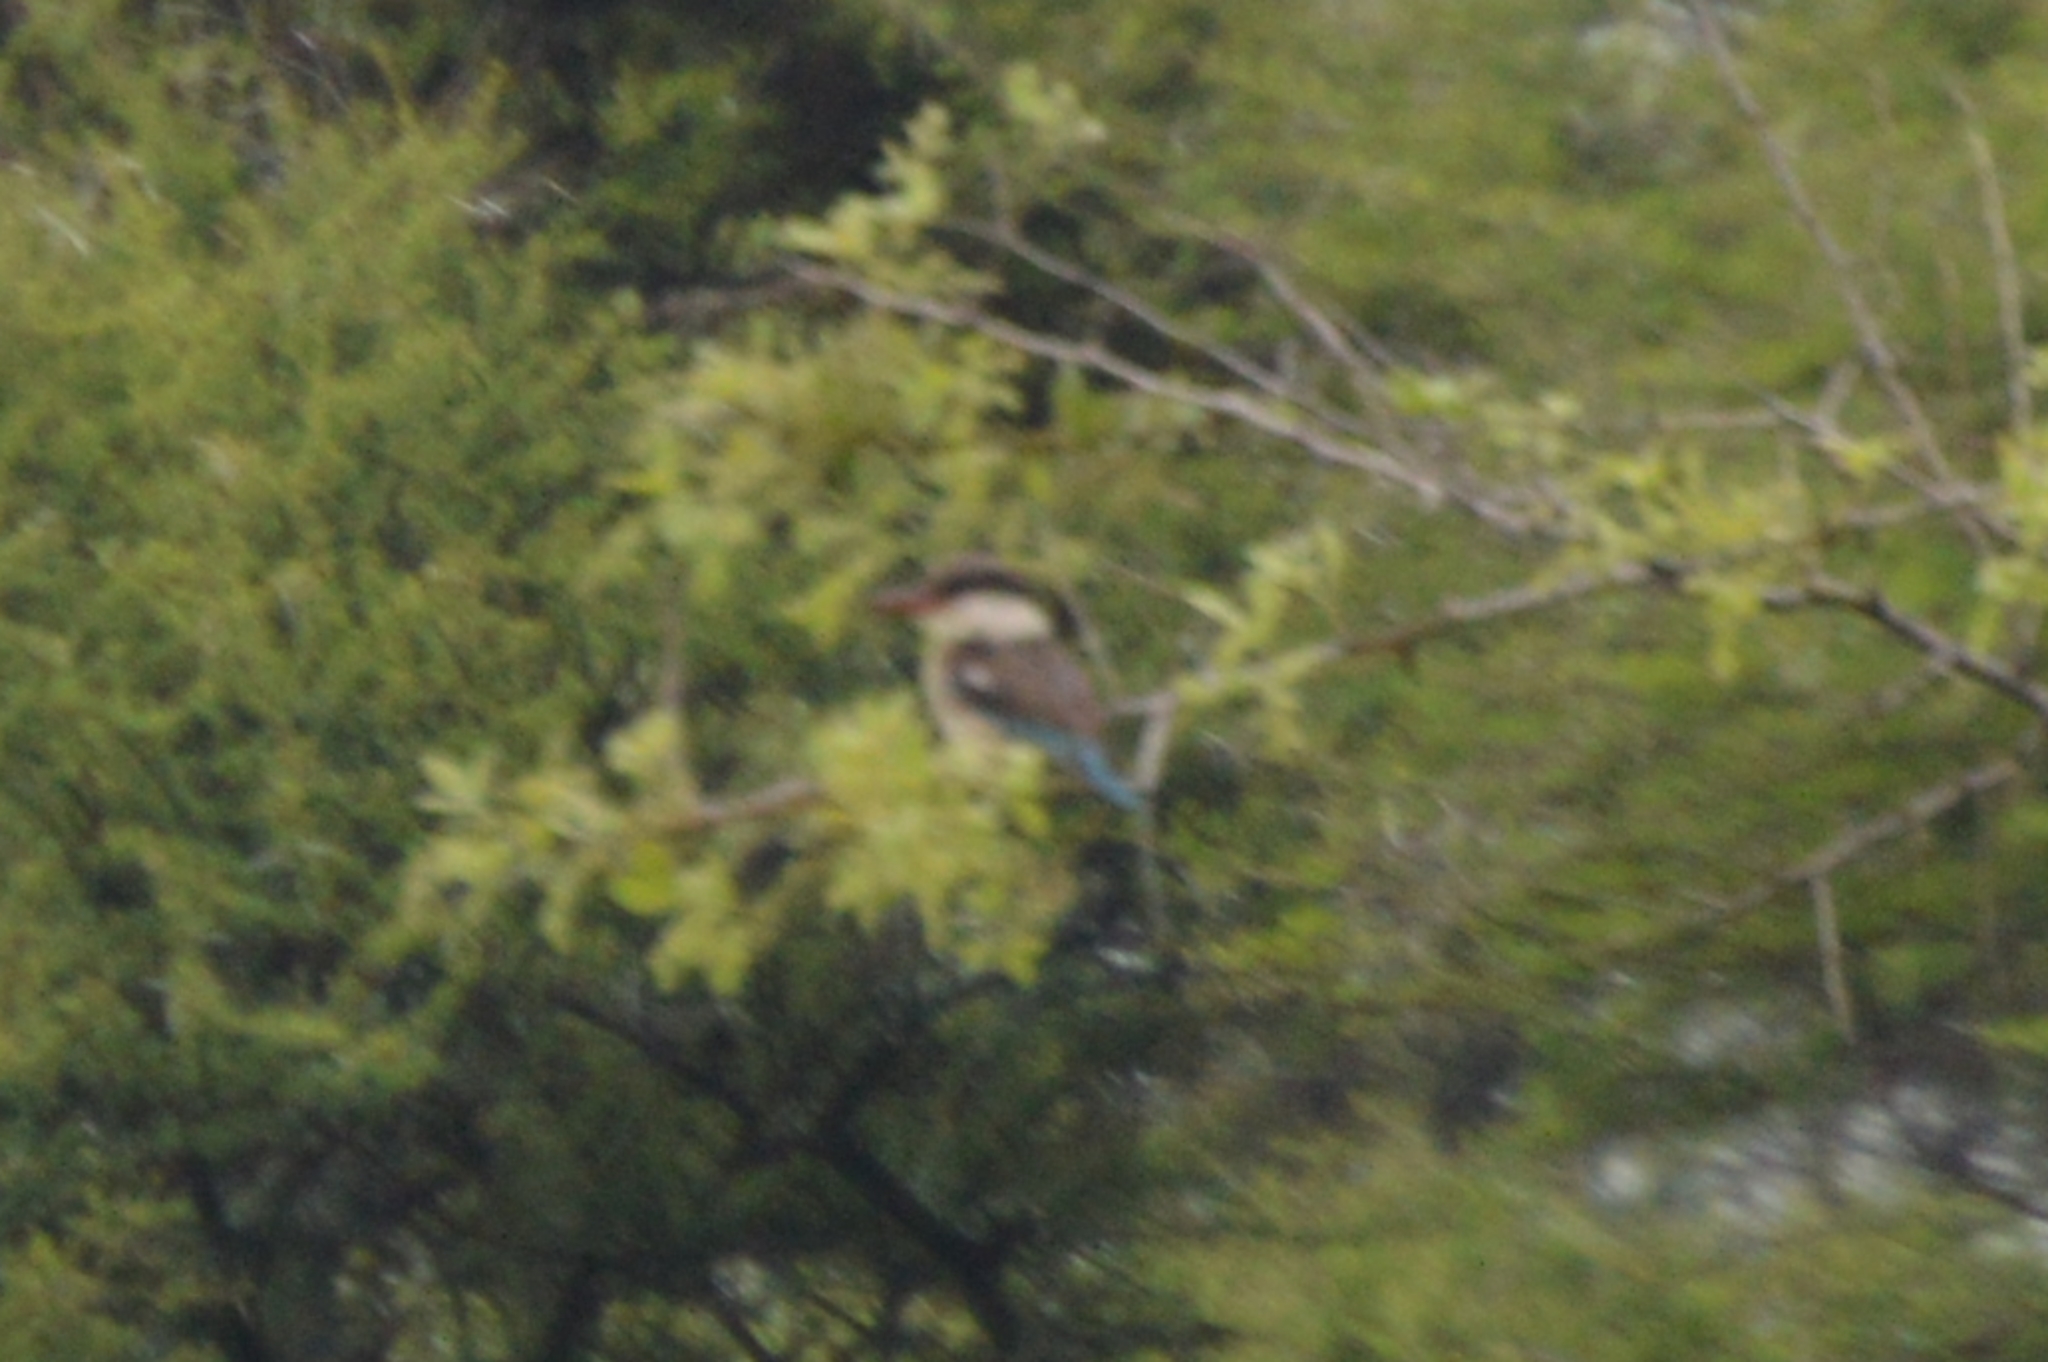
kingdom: Animalia
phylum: Chordata
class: Aves
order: Coraciiformes
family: Alcedinidae
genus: Halcyon
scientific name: Halcyon chelicuti
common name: Striped kingfisher
